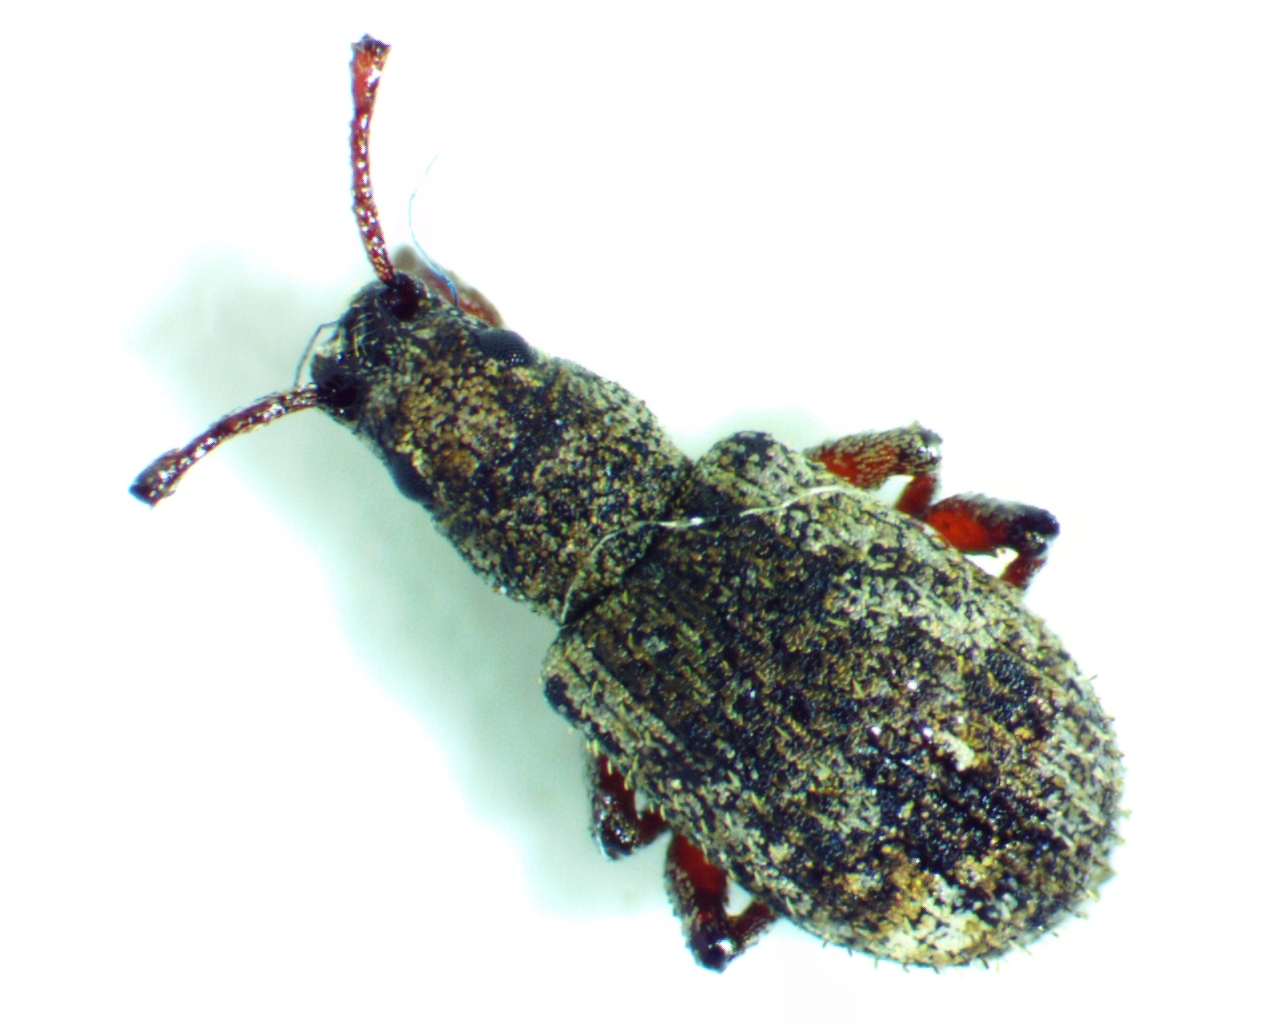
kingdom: Animalia
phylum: Arthropoda
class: Insecta
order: Coleoptera
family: Curculionidae
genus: Pseudoedophrys
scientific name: Pseudoedophrys hilleri
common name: Weevil
